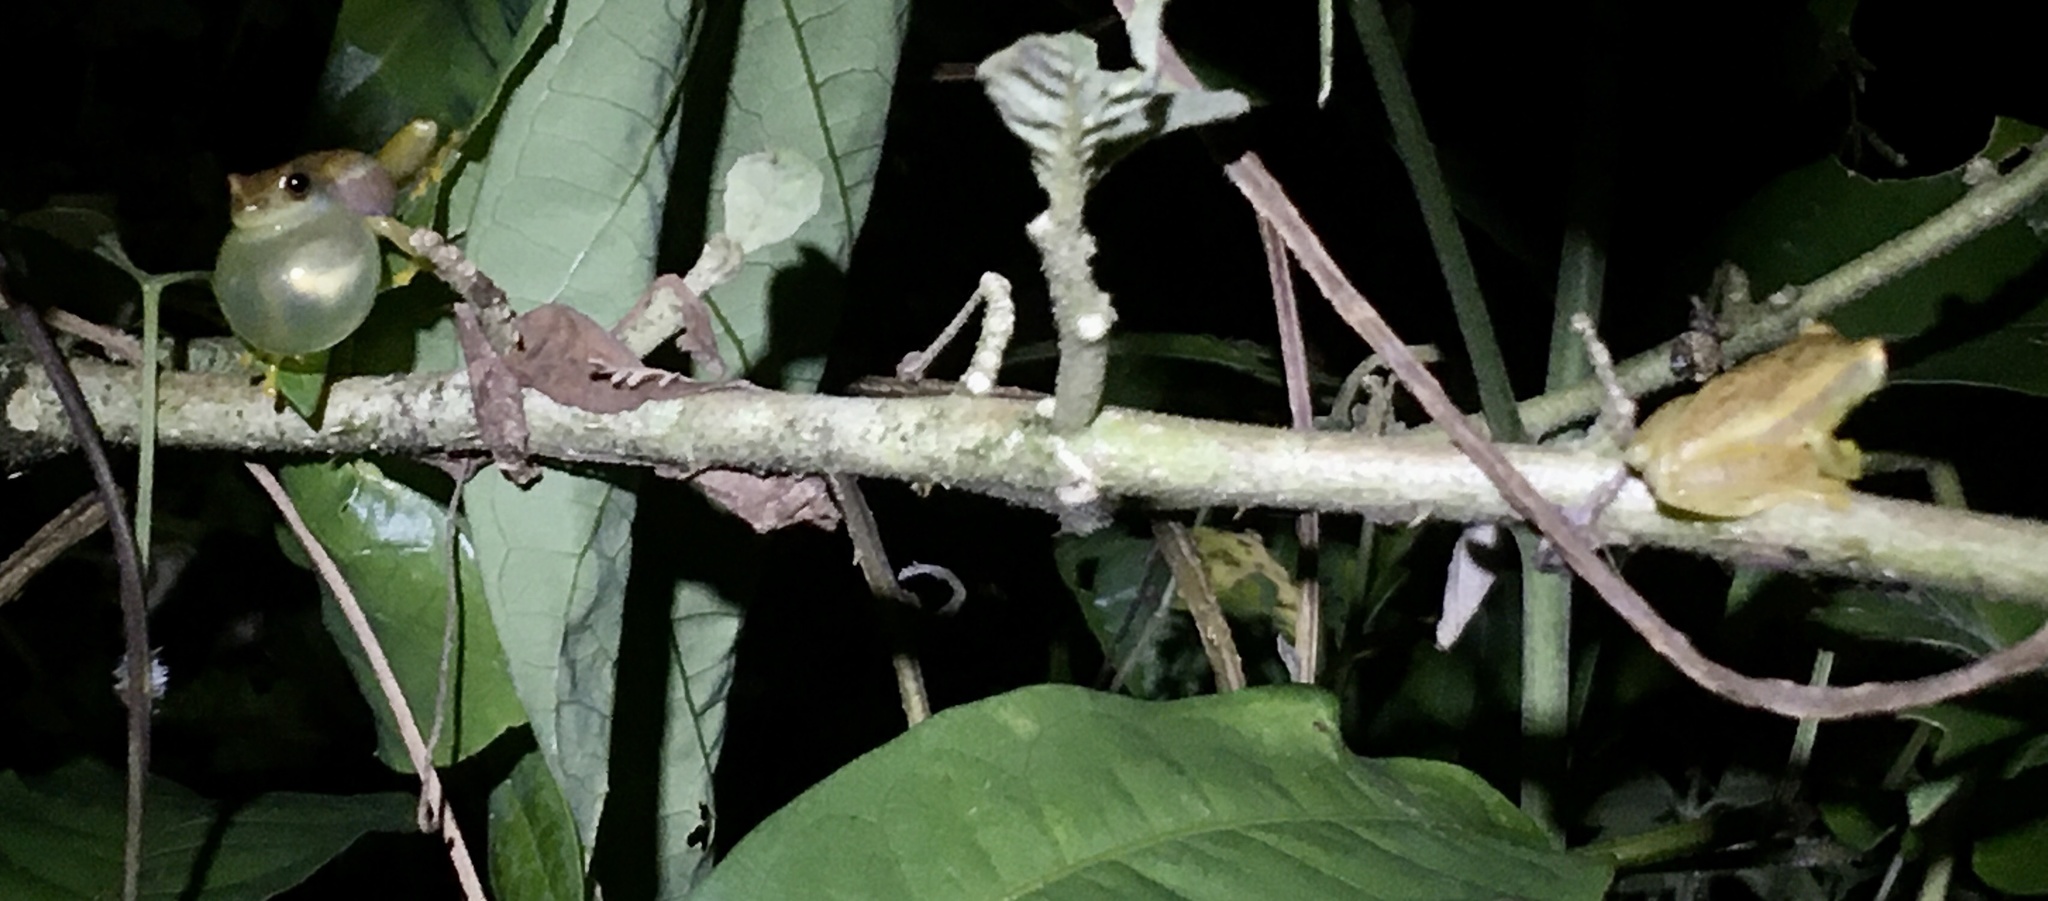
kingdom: Animalia
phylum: Chordata
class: Amphibia
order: Anura
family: Hylidae
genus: Dendropsophus
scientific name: Dendropsophus mathiassoni
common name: Mathiasson's treefrog
